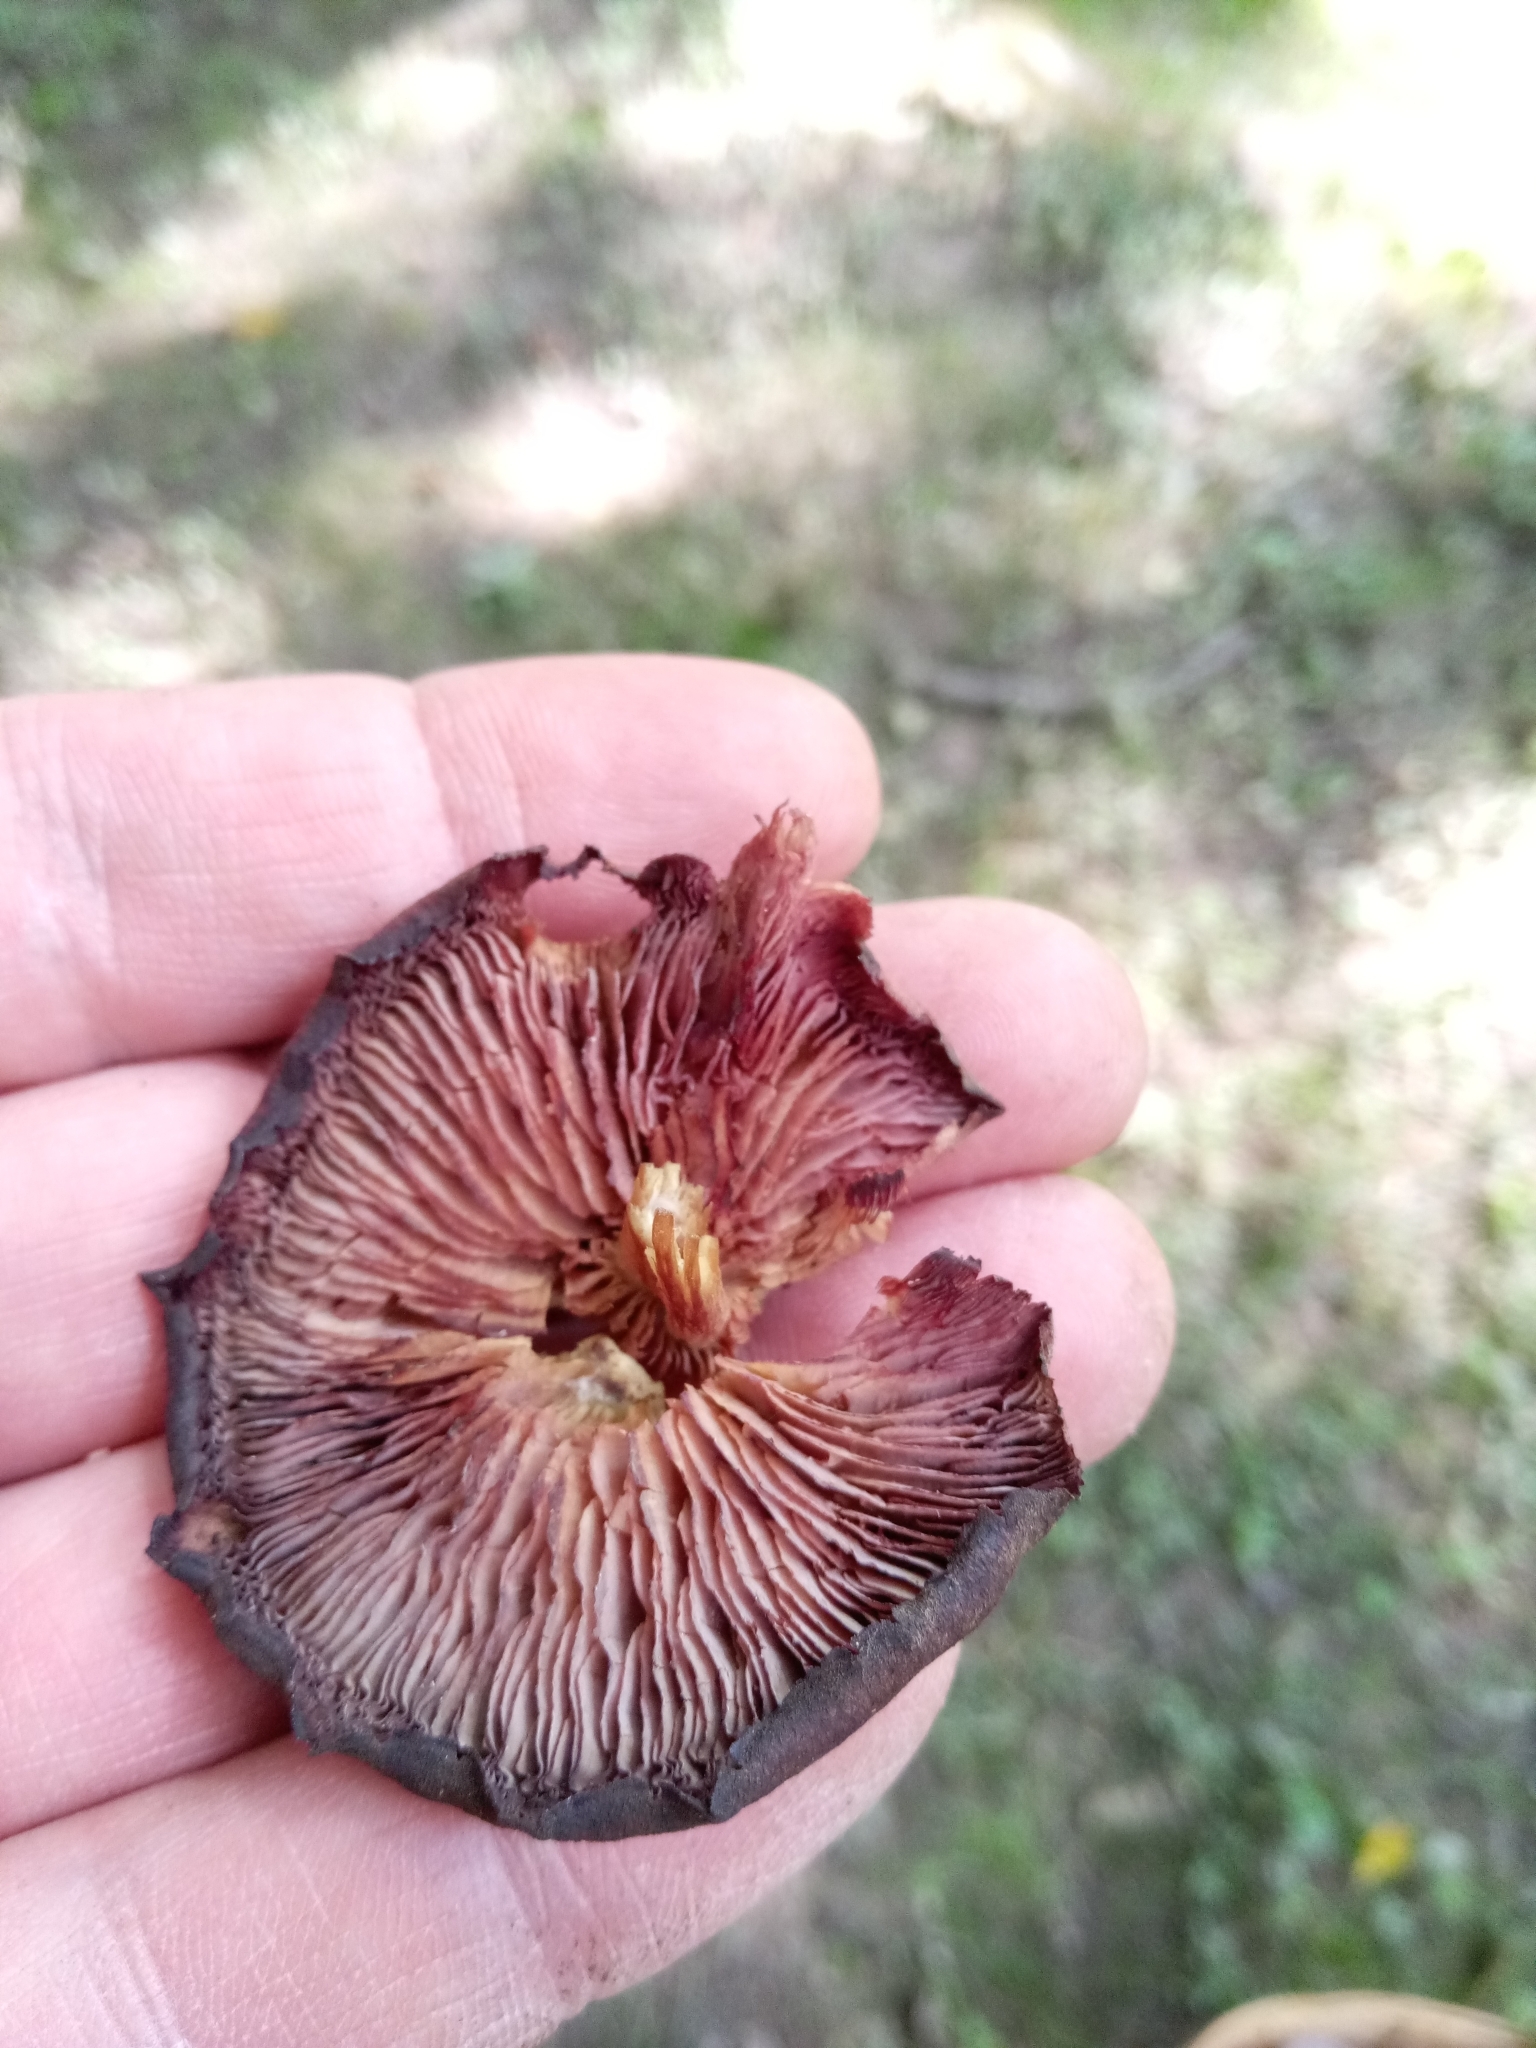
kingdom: Fungi
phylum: Basidiomycota
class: Agaricomycetes
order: Agaricales
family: Callistosporiaceae
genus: Callistosporium
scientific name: Callistosporium purpureomarginatum
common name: Purple-edged lute
